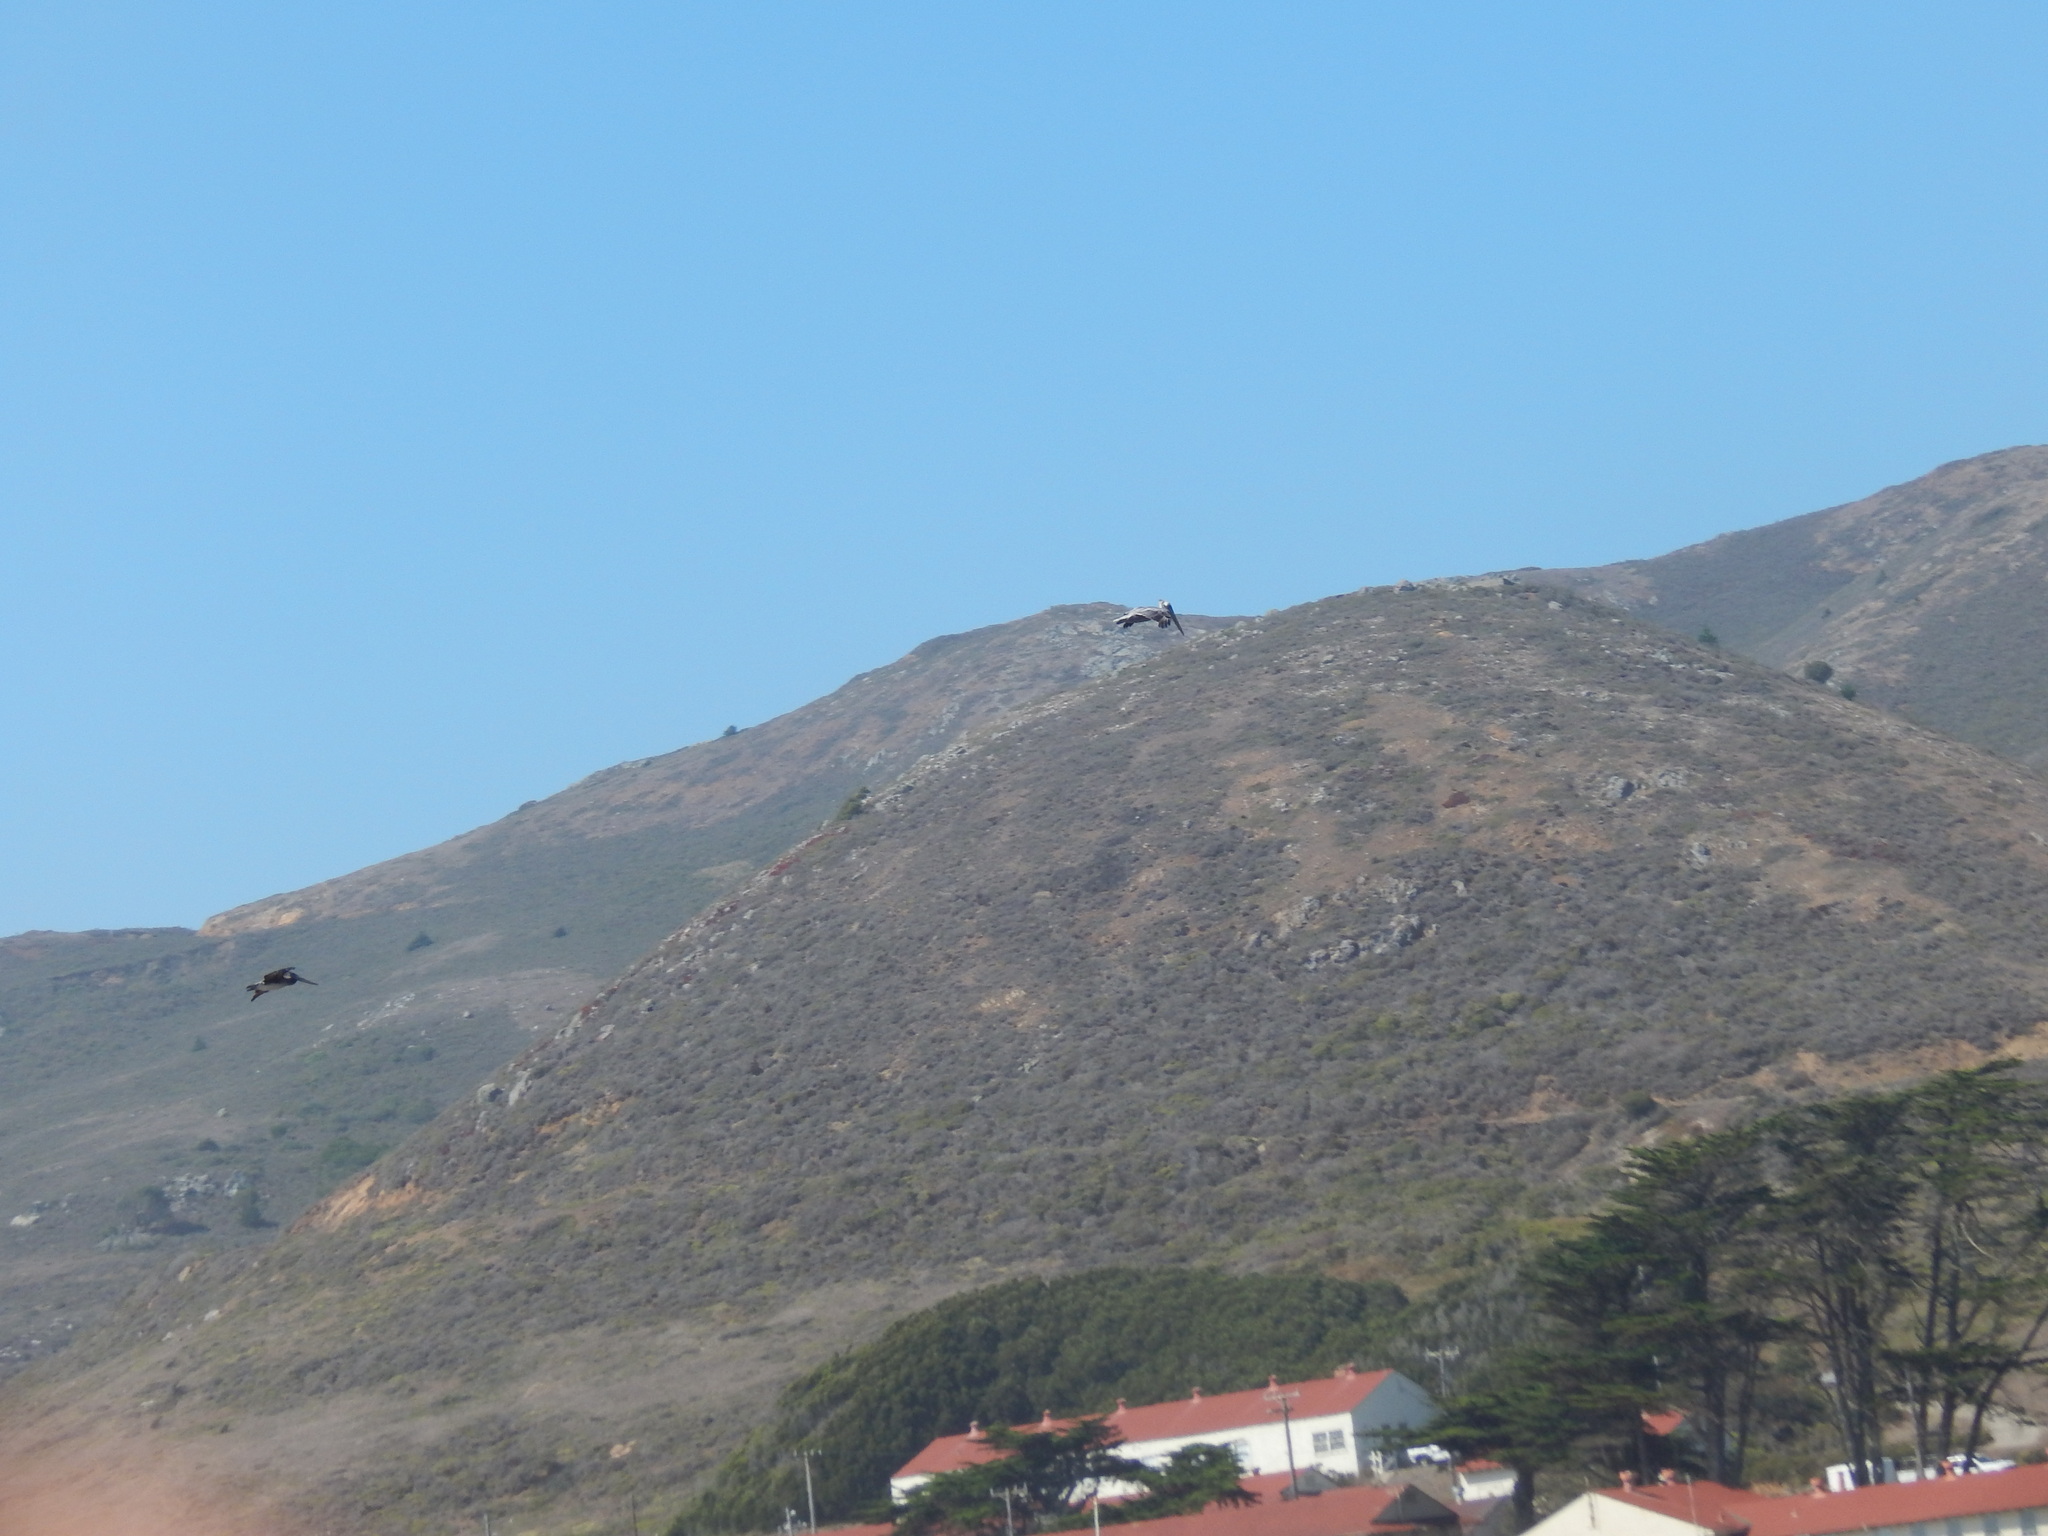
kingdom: Animalia
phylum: Chordata
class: Aves
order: Pelecaniformes
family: Pelecanidae
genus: Pelecanus
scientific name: Pelecanus occidentalis
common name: Brown pelican
